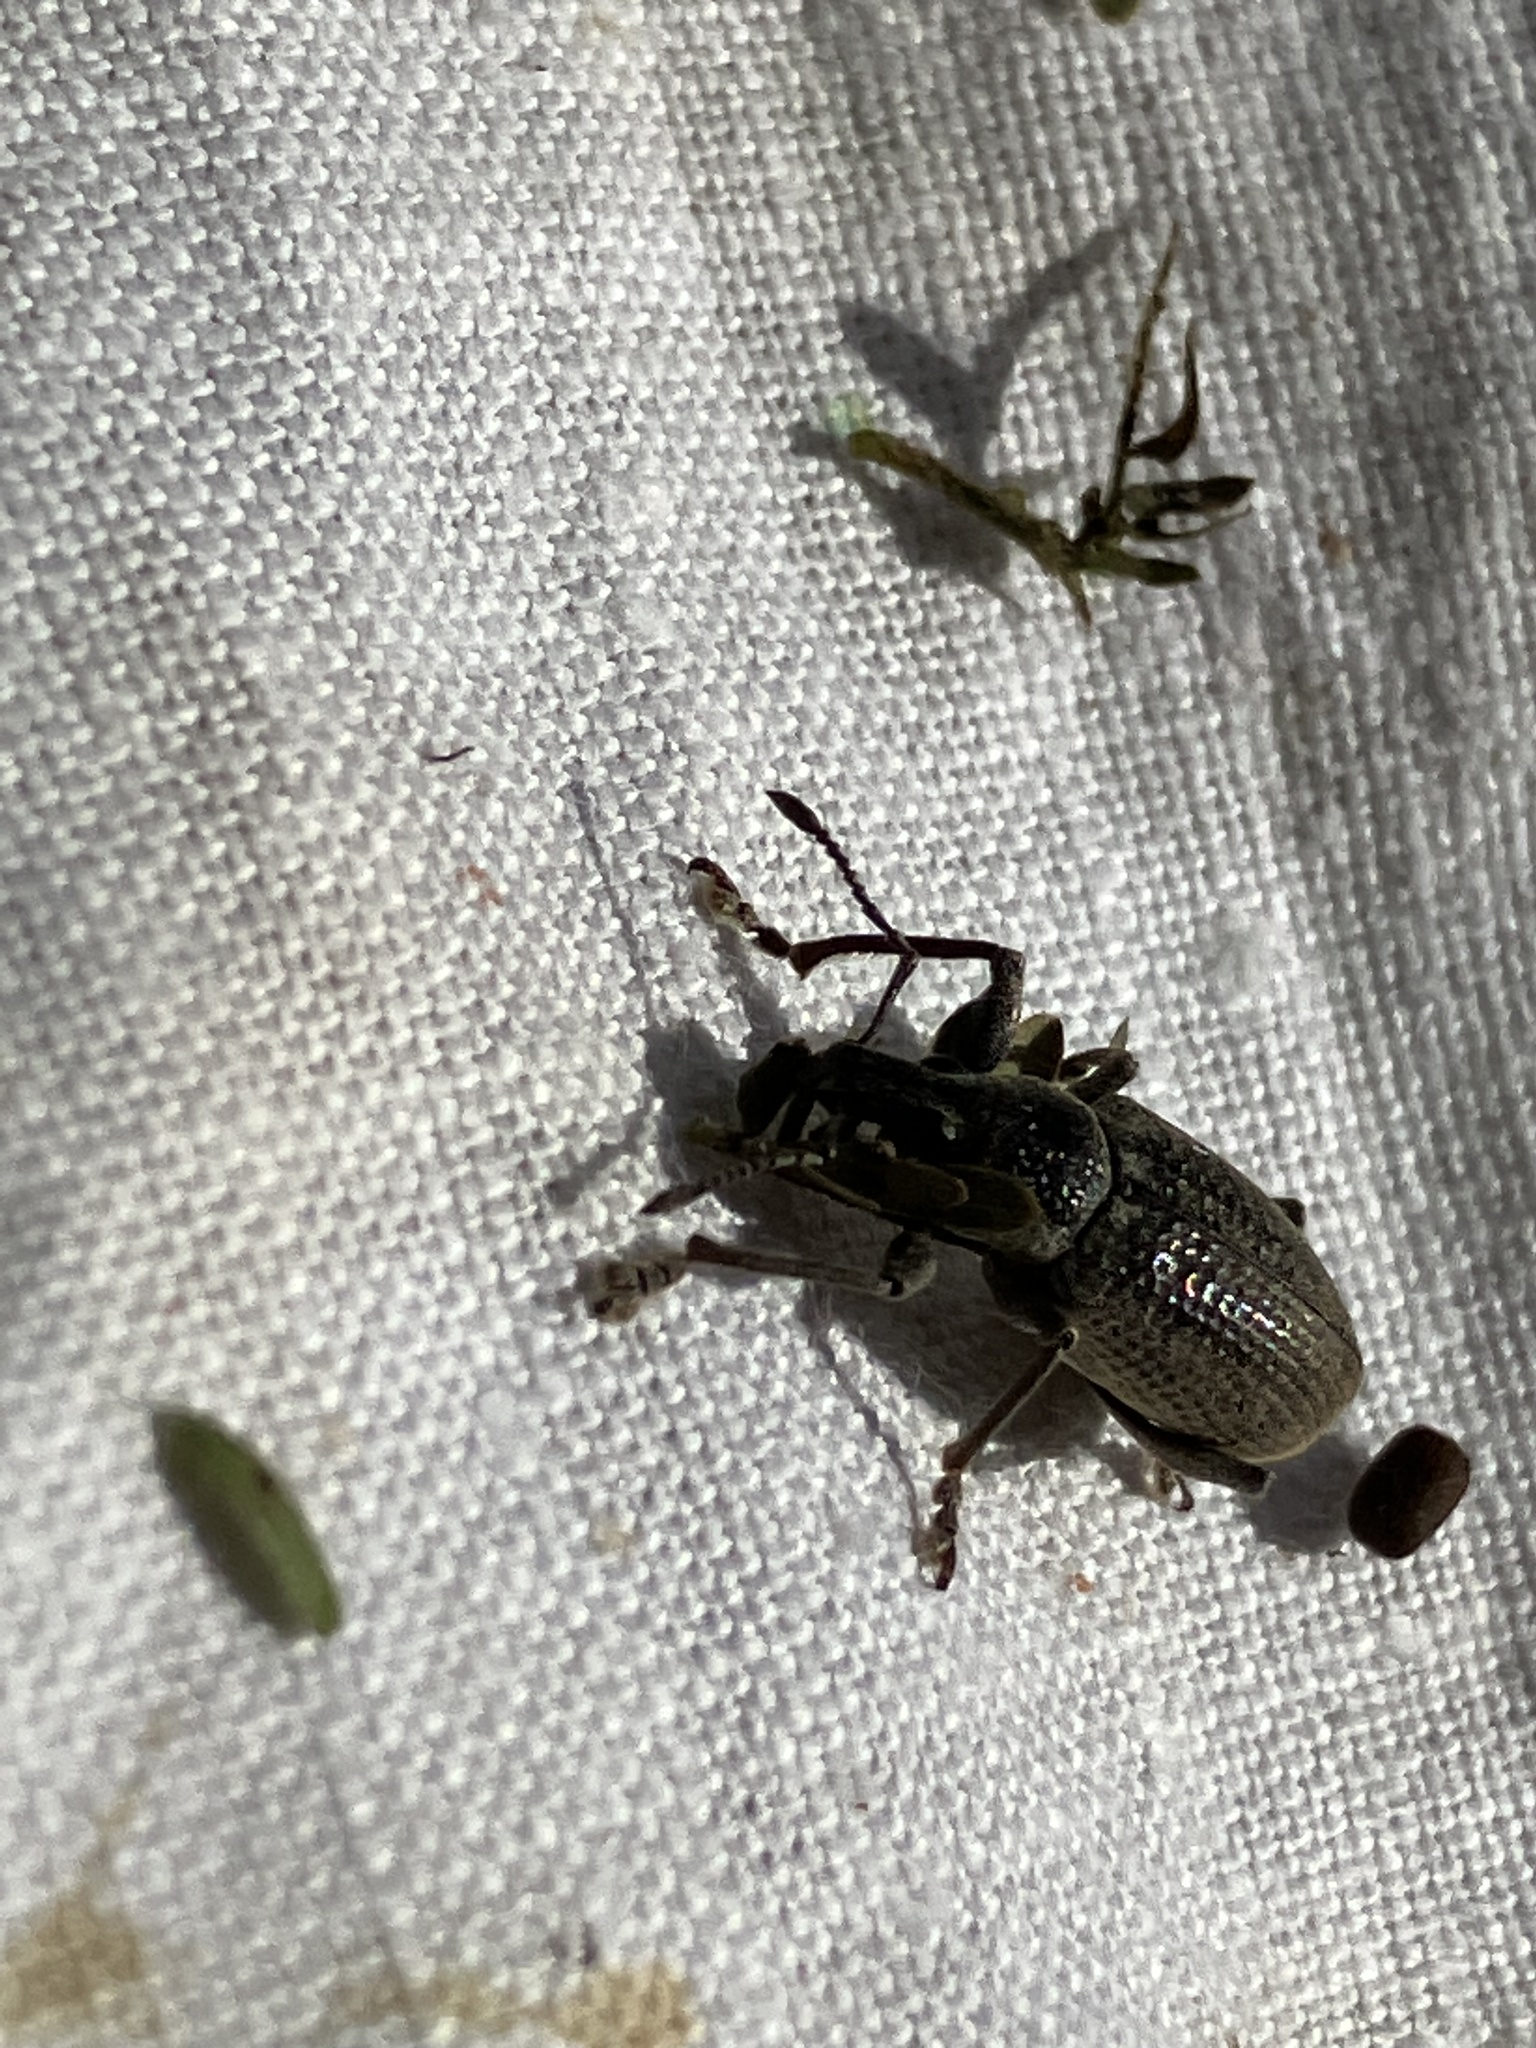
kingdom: Animalia
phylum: Arthropoda
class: Insecta
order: Coleoptera
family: Curculionidae
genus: Diaprepes
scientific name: Diaprepes famelicus
